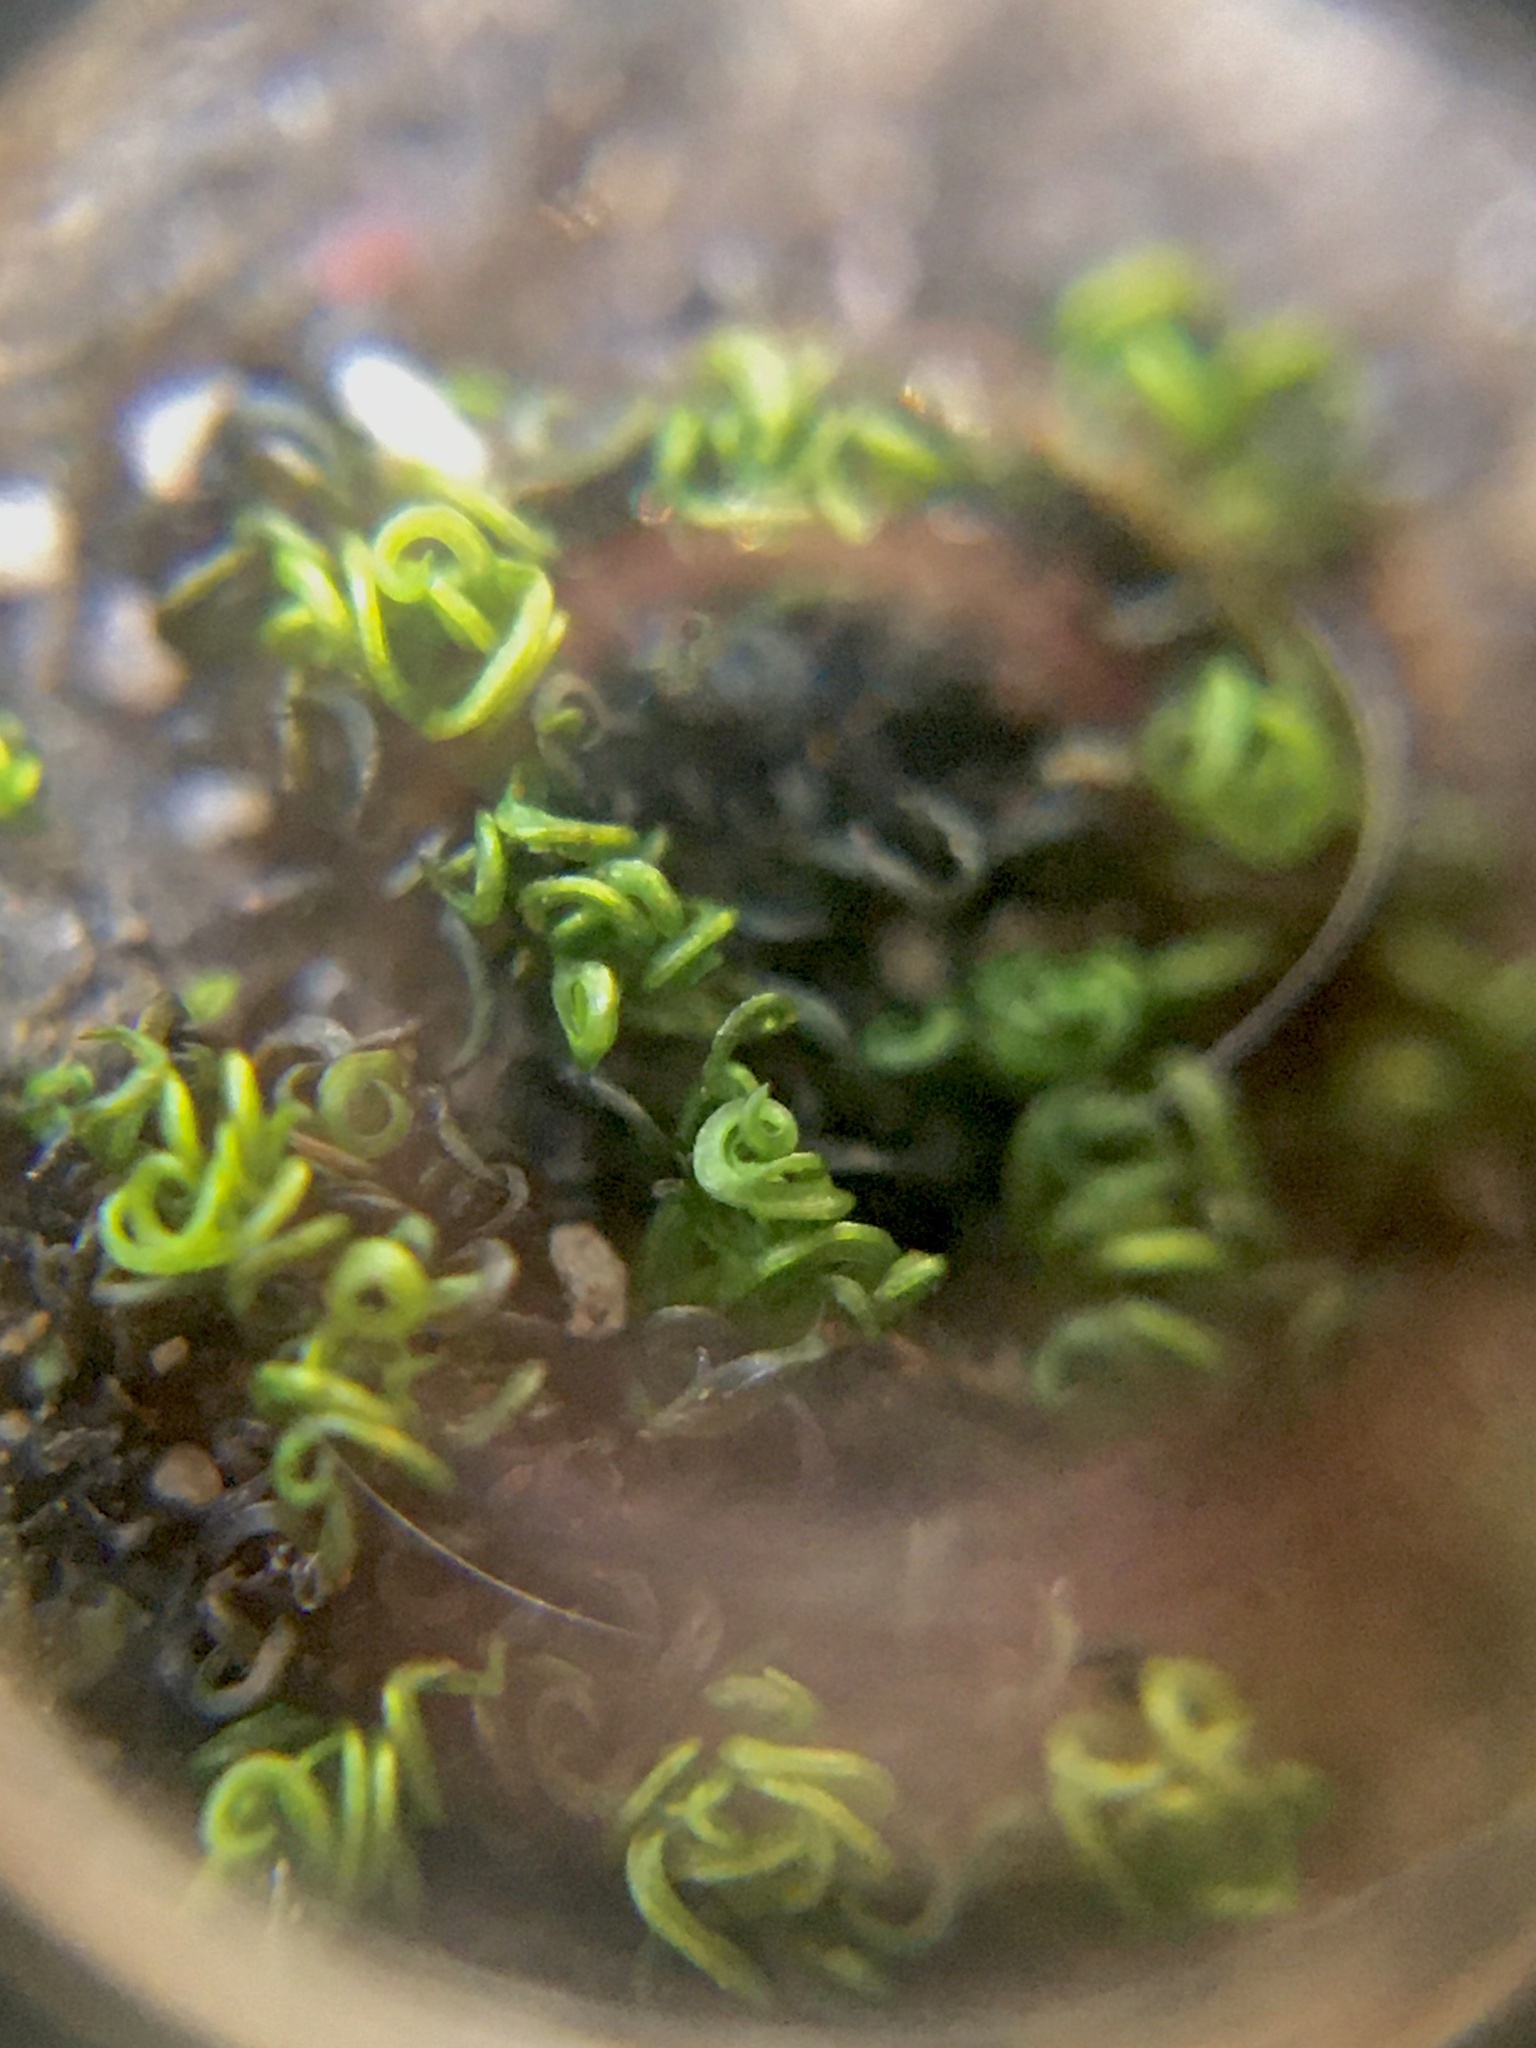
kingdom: Plantae
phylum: Bryophyta
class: Bryopsida
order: Grimmiales
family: Ptychomitriaceae
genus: Ptychomitrium
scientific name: Ptychomitrium crispatum
